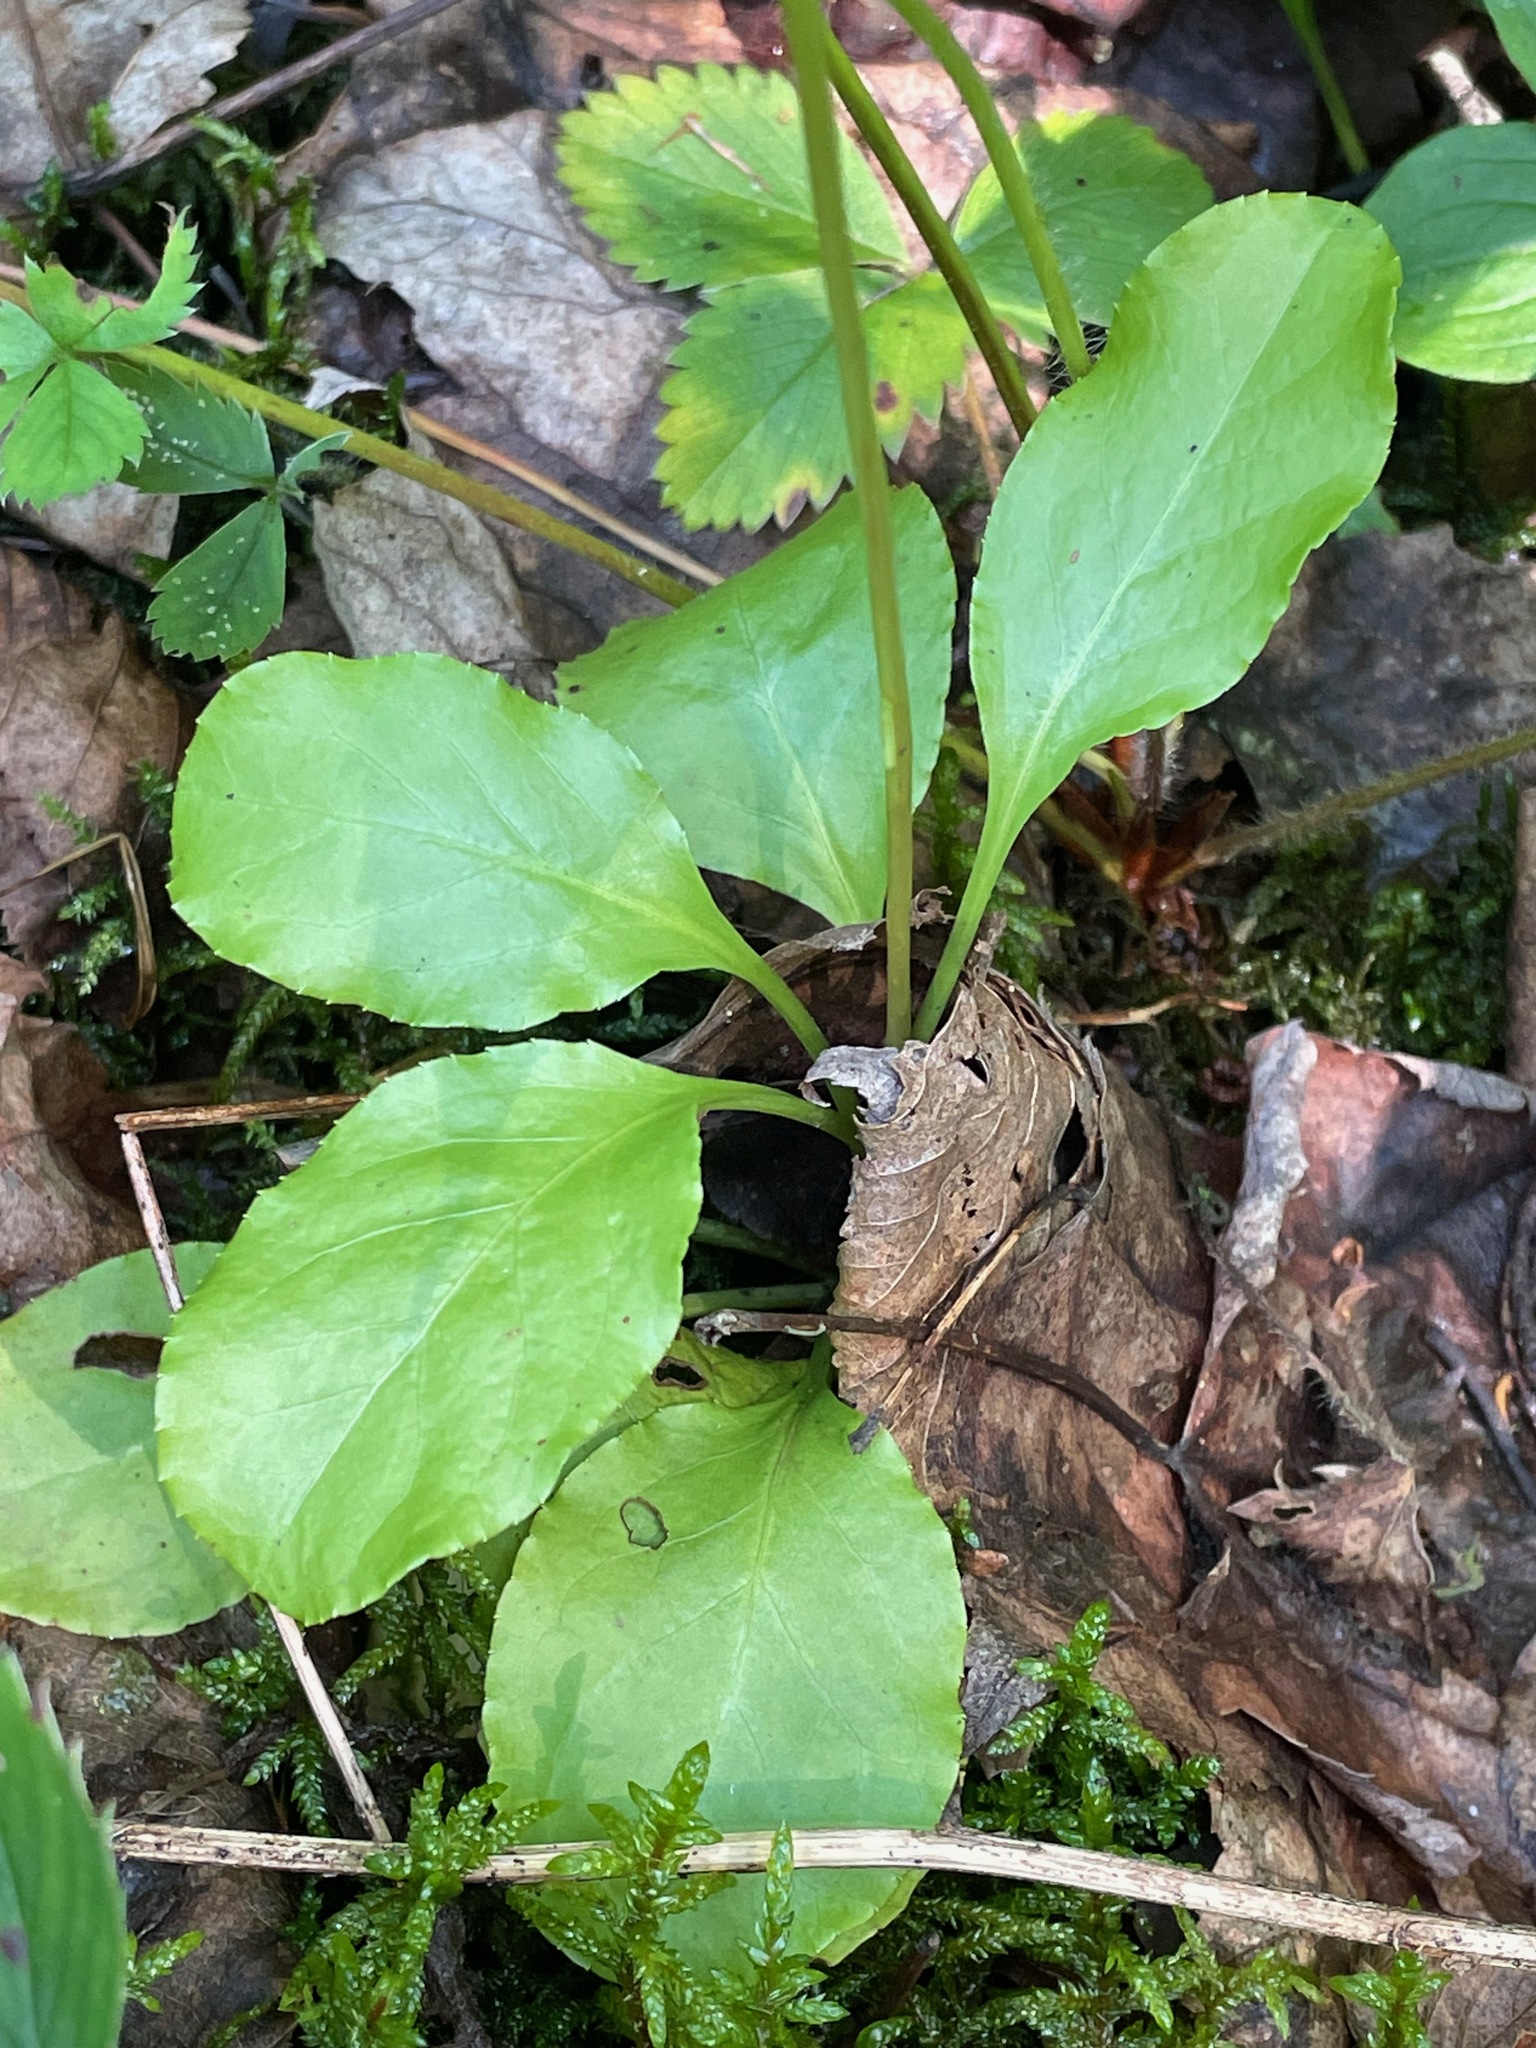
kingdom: Plantae
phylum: Tracheophyta
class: Magnoliopsida
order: Ericales
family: Ericaceae
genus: Pyrola
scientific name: Pyrola elliptica
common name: Shinleaf
